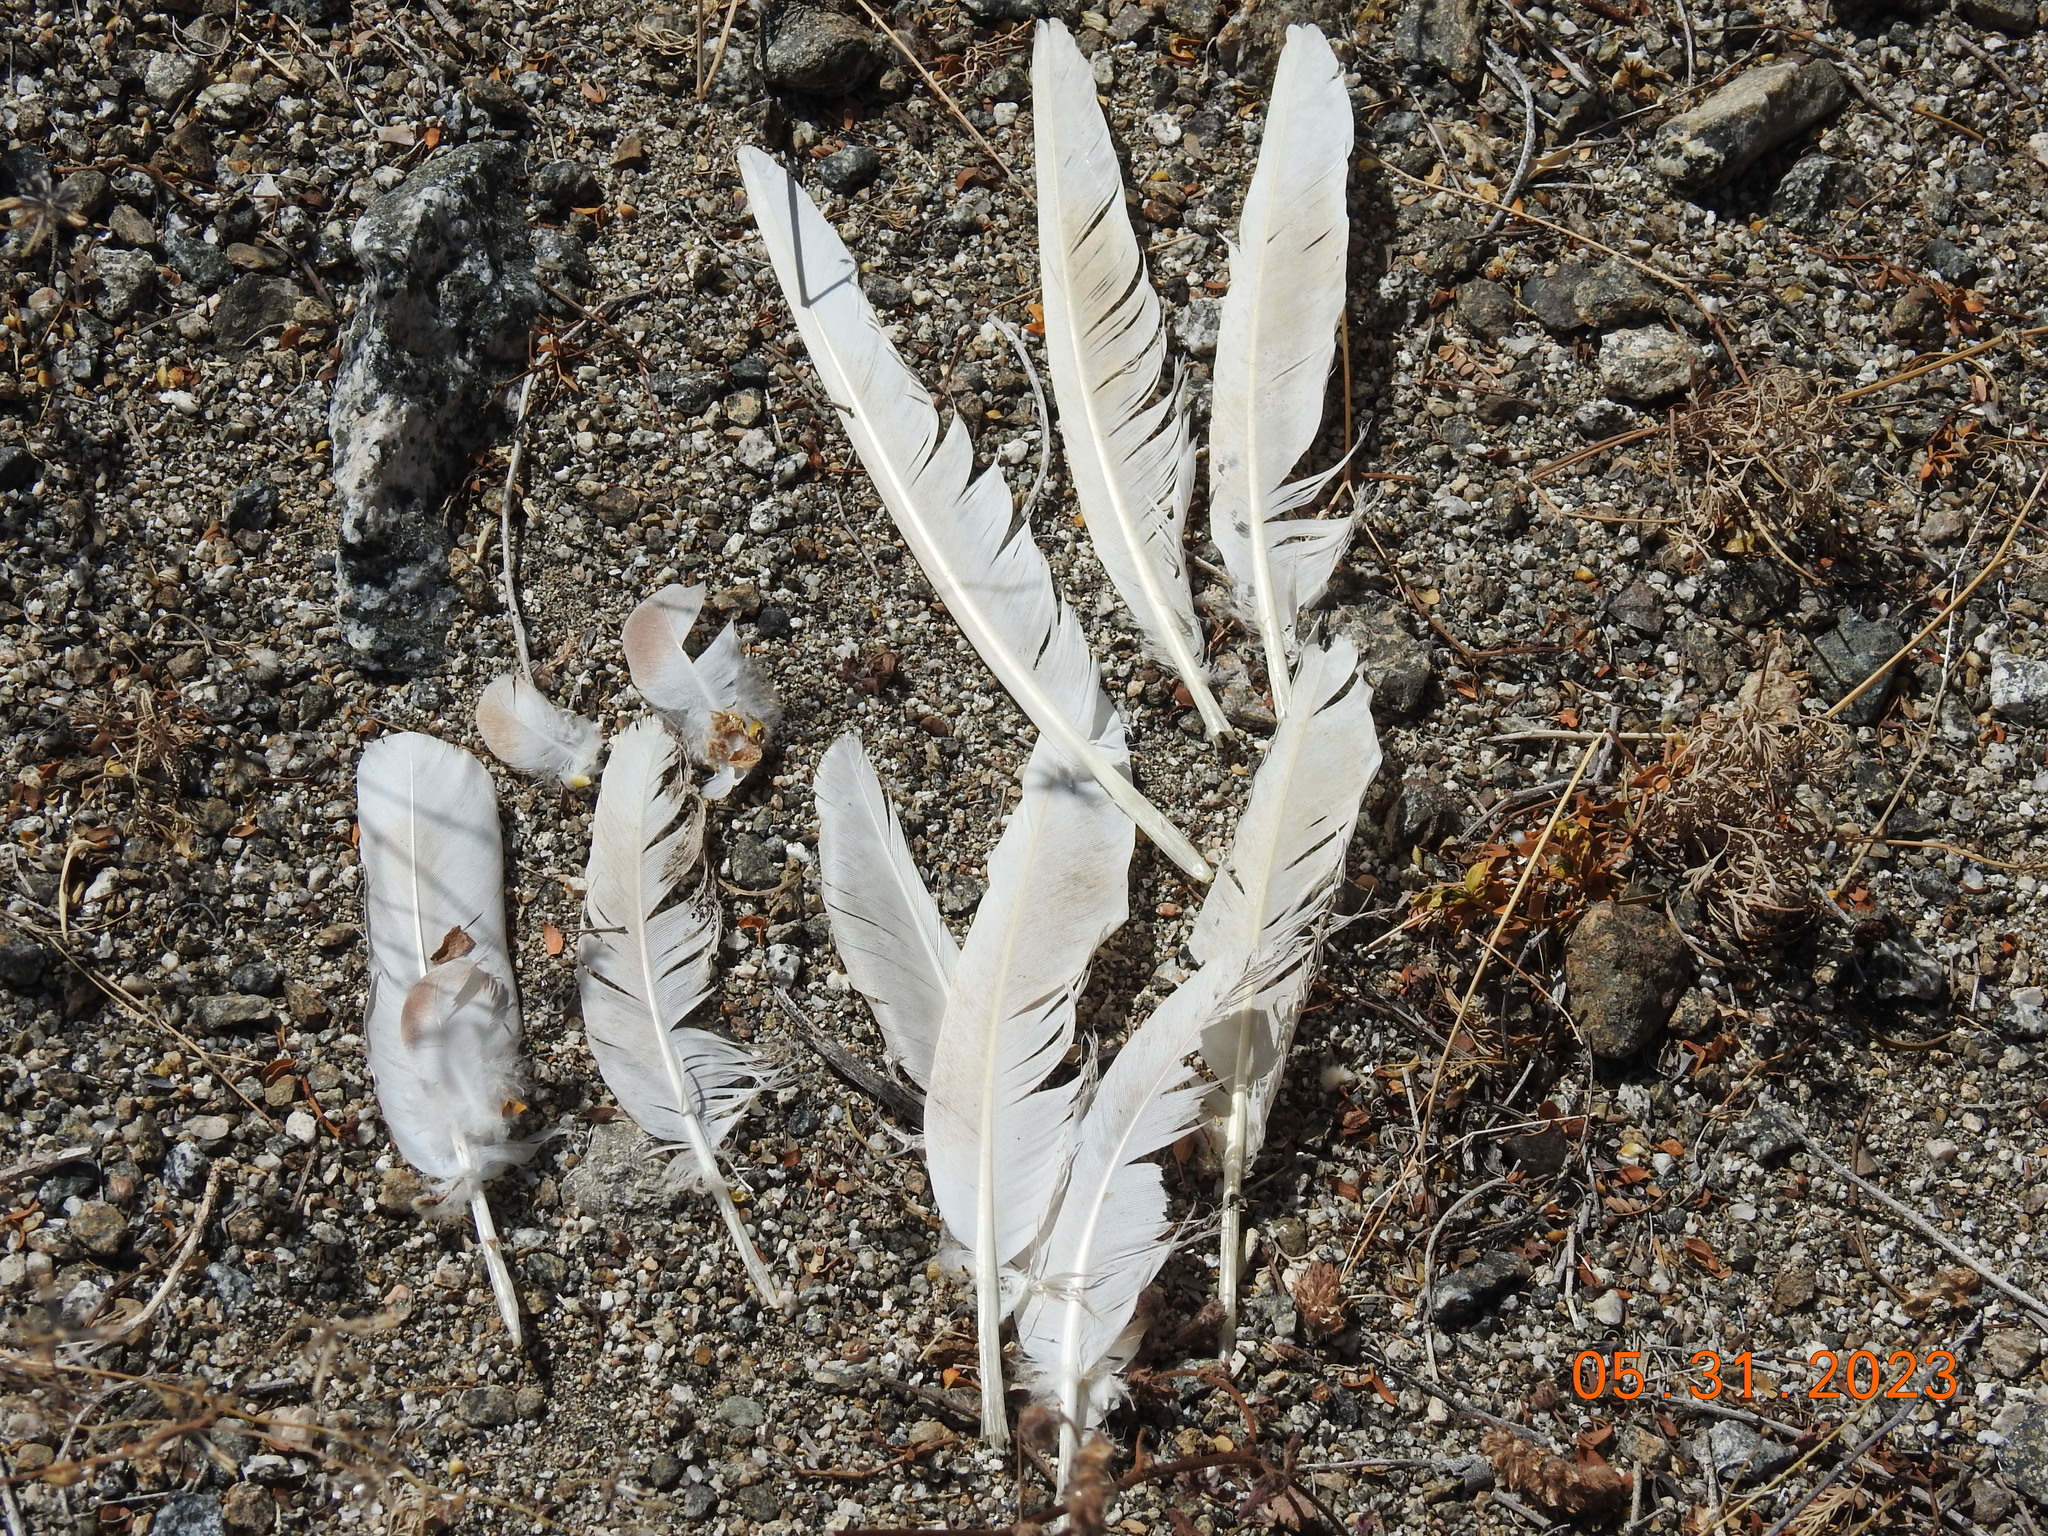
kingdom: Animalia
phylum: Chordata
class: Aves
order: Columbiformes
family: Columbidae
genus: Columba
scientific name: Columba livia
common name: Rock pigeon
